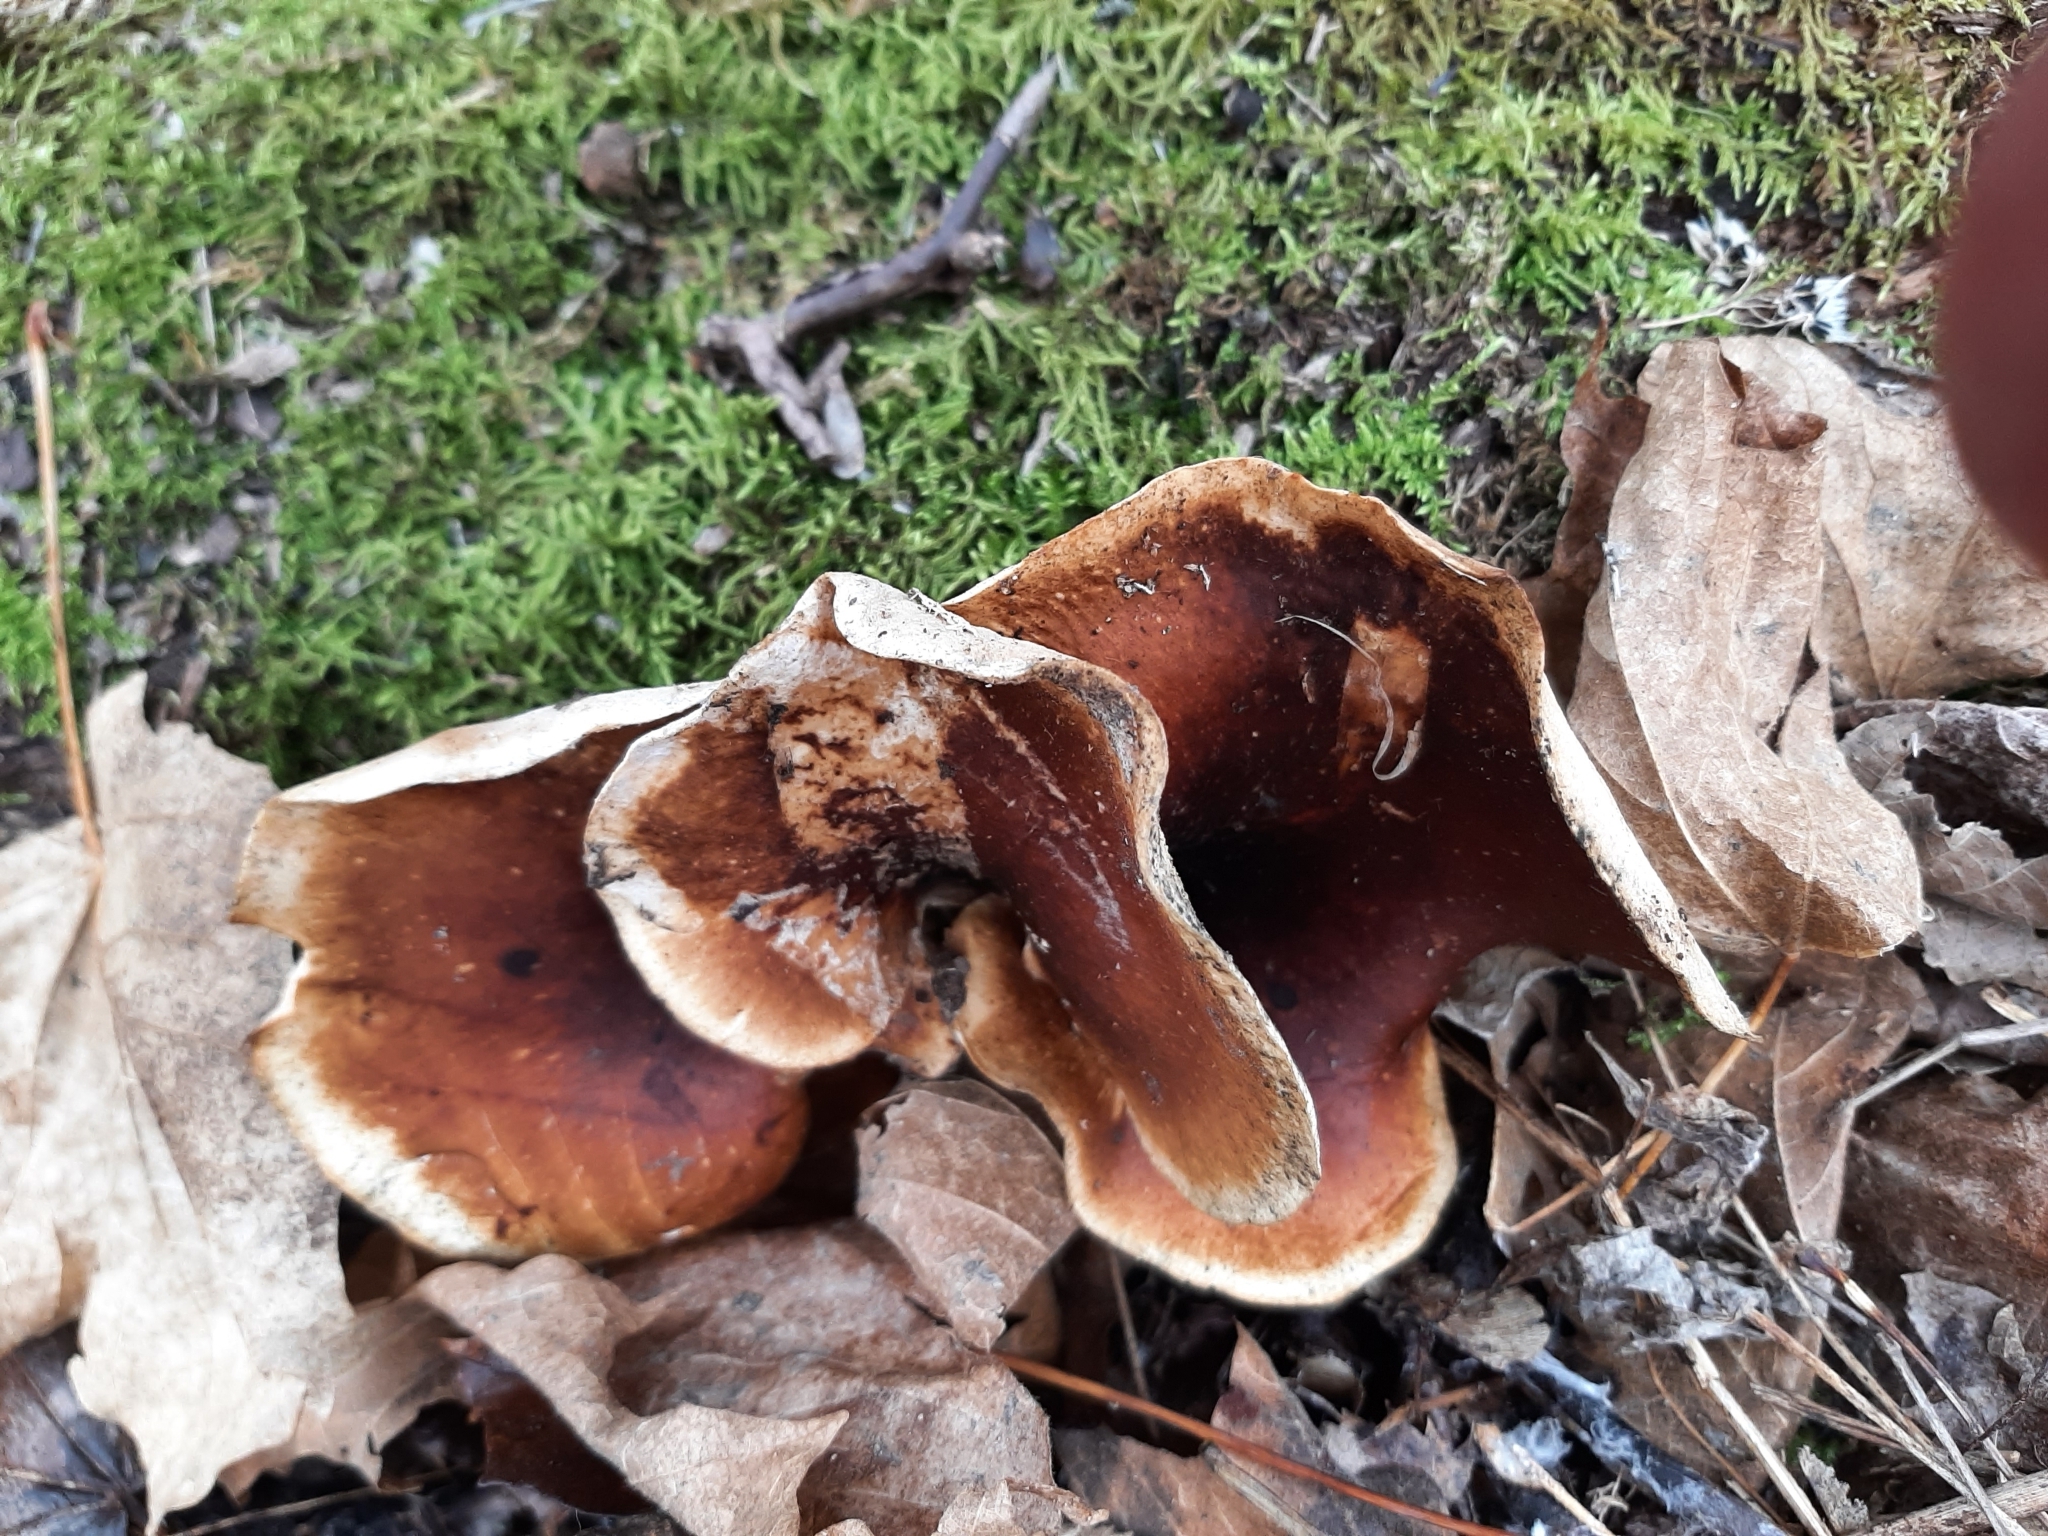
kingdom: Fungi
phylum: Basidiomycota
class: Agaricomycetes
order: Polyporales
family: Polyporaceae
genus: Picipes
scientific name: Picipes badius
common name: Bay polypore
